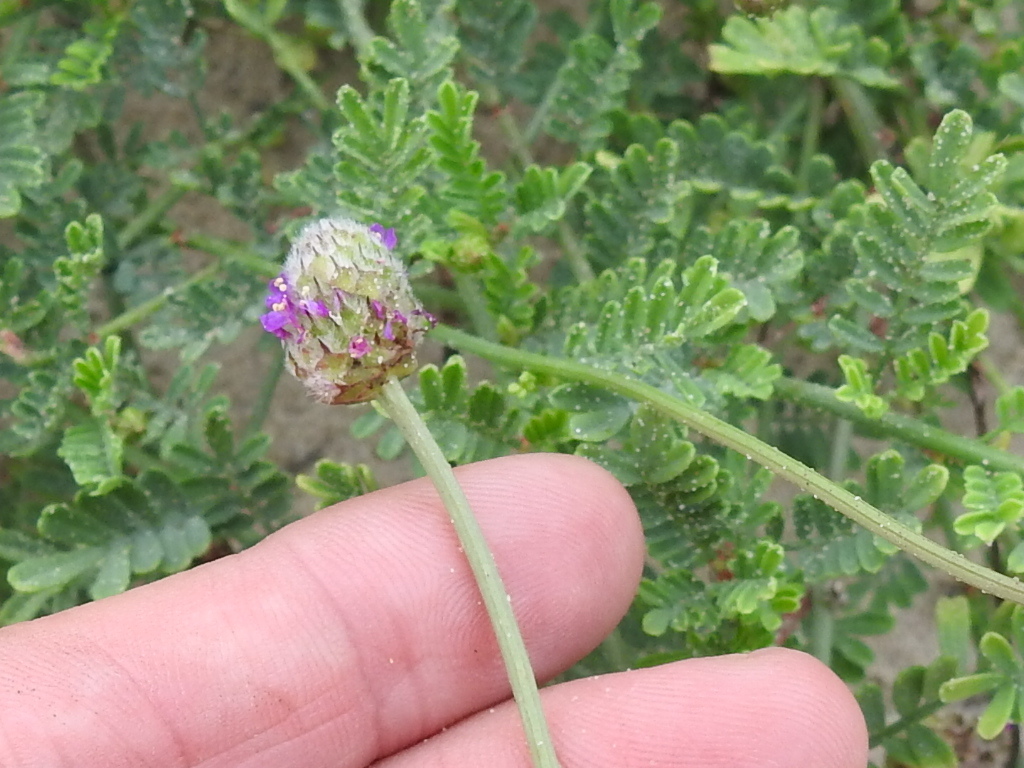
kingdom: Plantae
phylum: Tracheophyta
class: Magnoliopsida
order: Fabales
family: Fabaceae
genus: Dalea
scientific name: Dalea emarginata
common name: Wedgeleaf prairie clover
